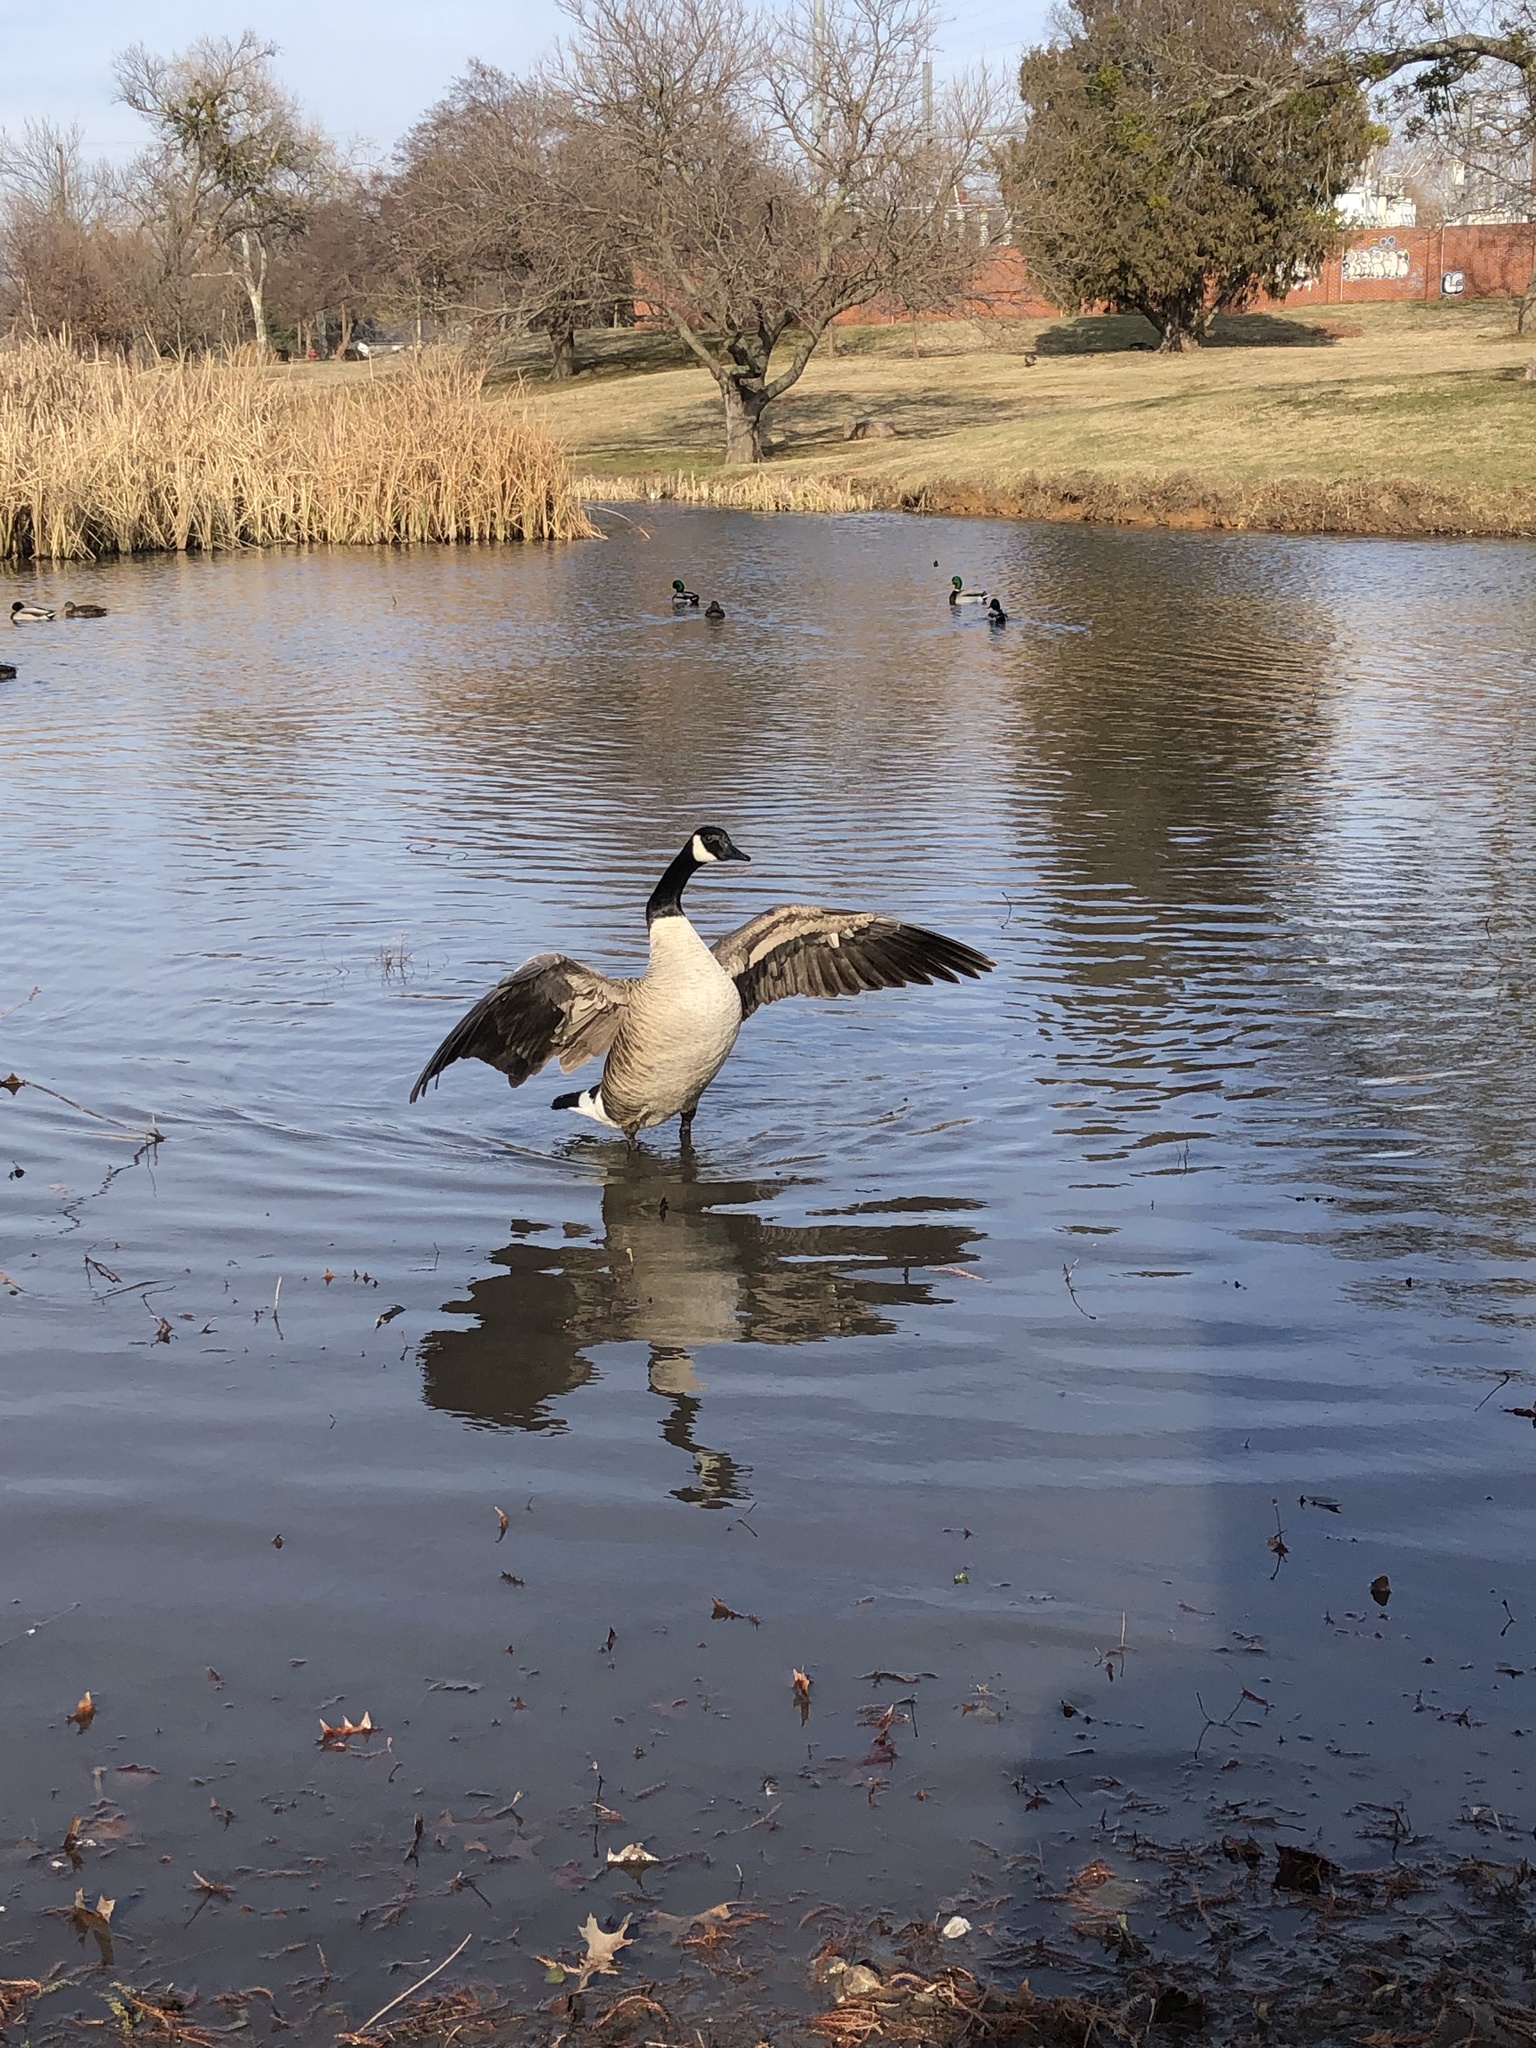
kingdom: Animalia
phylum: Chordata
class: Aves
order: Anseriformes
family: Anatidae
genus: Branta
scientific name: Branta canadensis
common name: Canada goose
